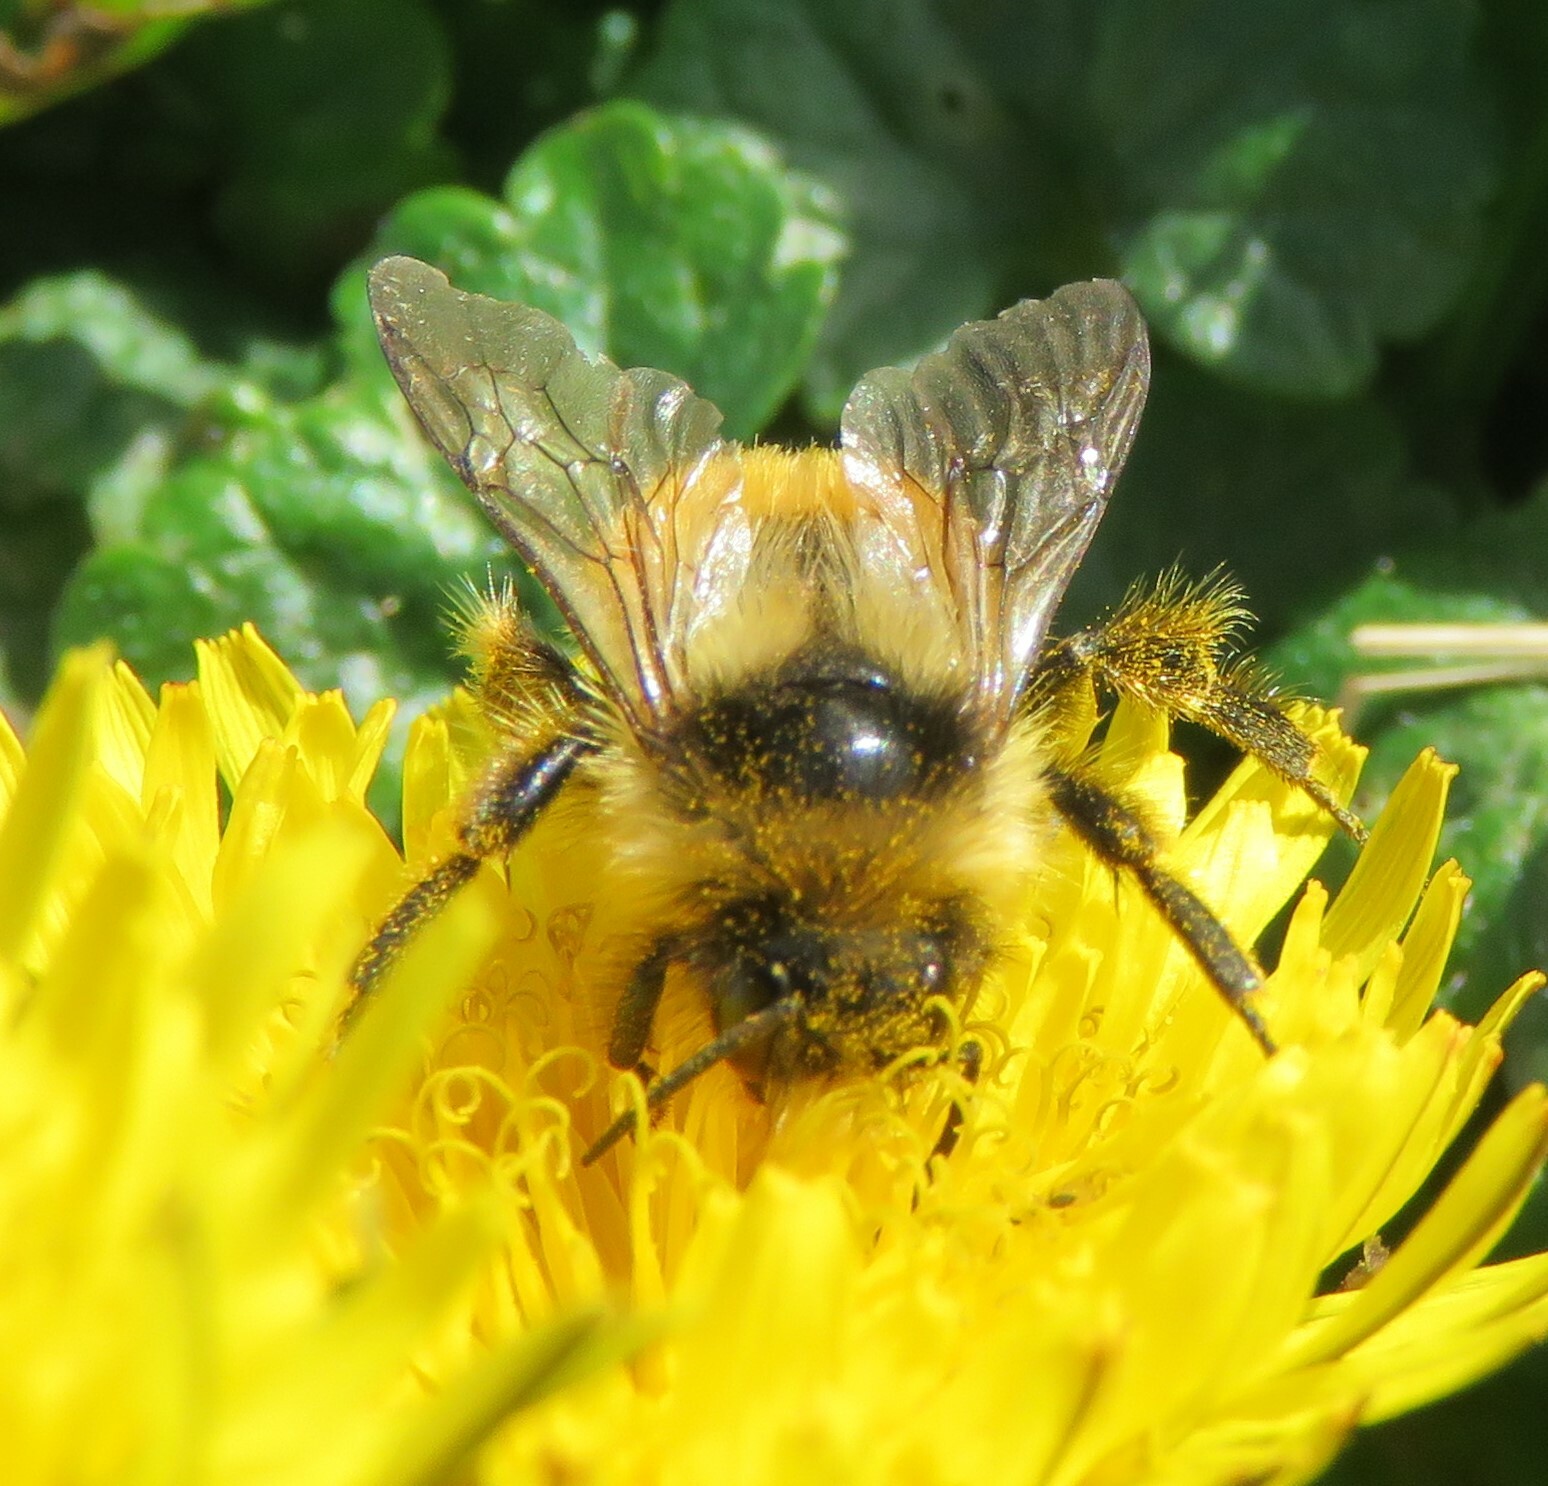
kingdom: Animalia
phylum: Arthropoda
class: Insecta
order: Hymenoptera
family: Apidae
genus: Bombus
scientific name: Bombus ternarius
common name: Tri-colored bumble bee
